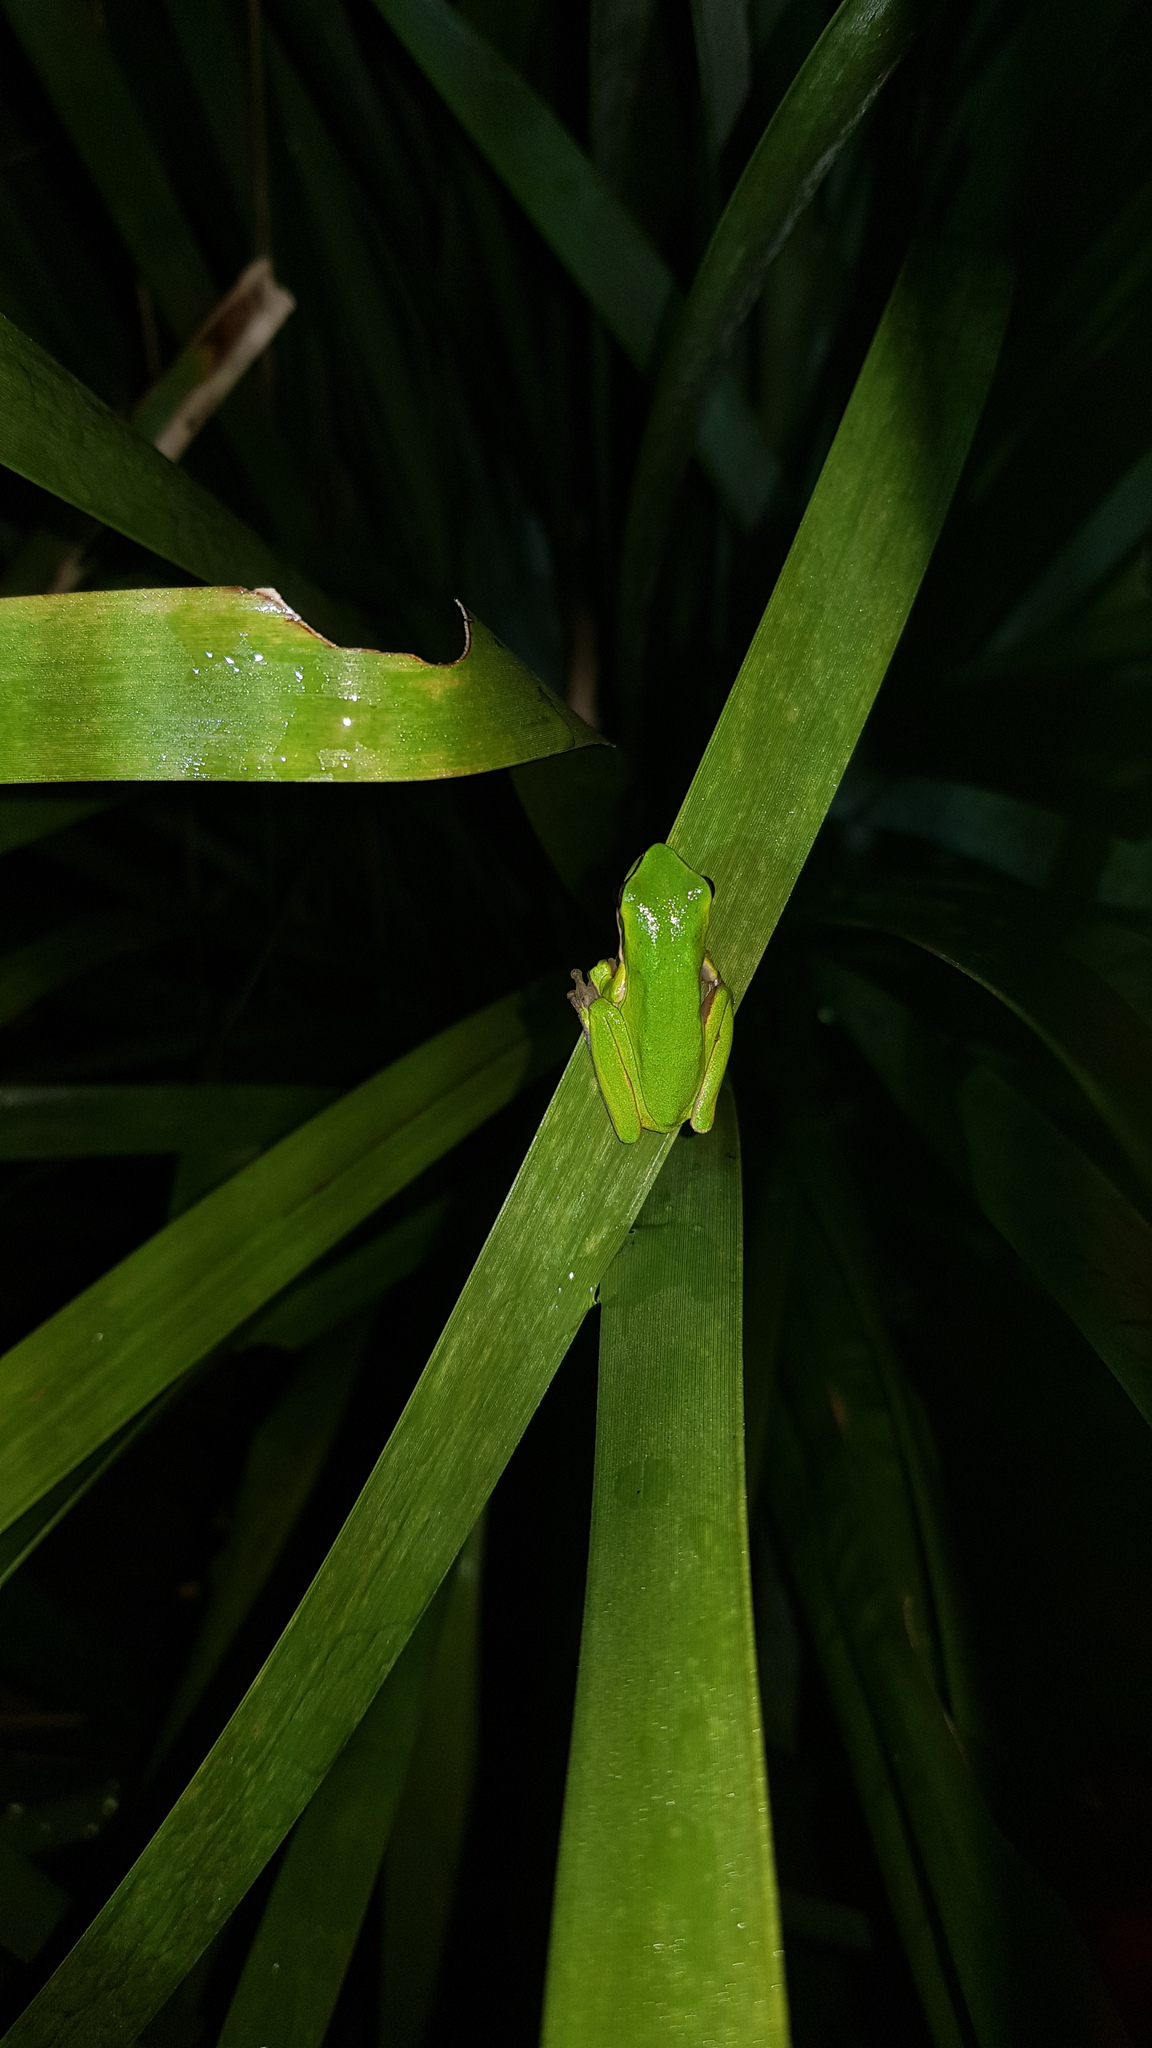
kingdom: Animalia
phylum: Chordata
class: Amphibia
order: Anura
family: Pelodryadidae
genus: Litoria
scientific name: Litoria fallax
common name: Eastern dwarf treefrog
